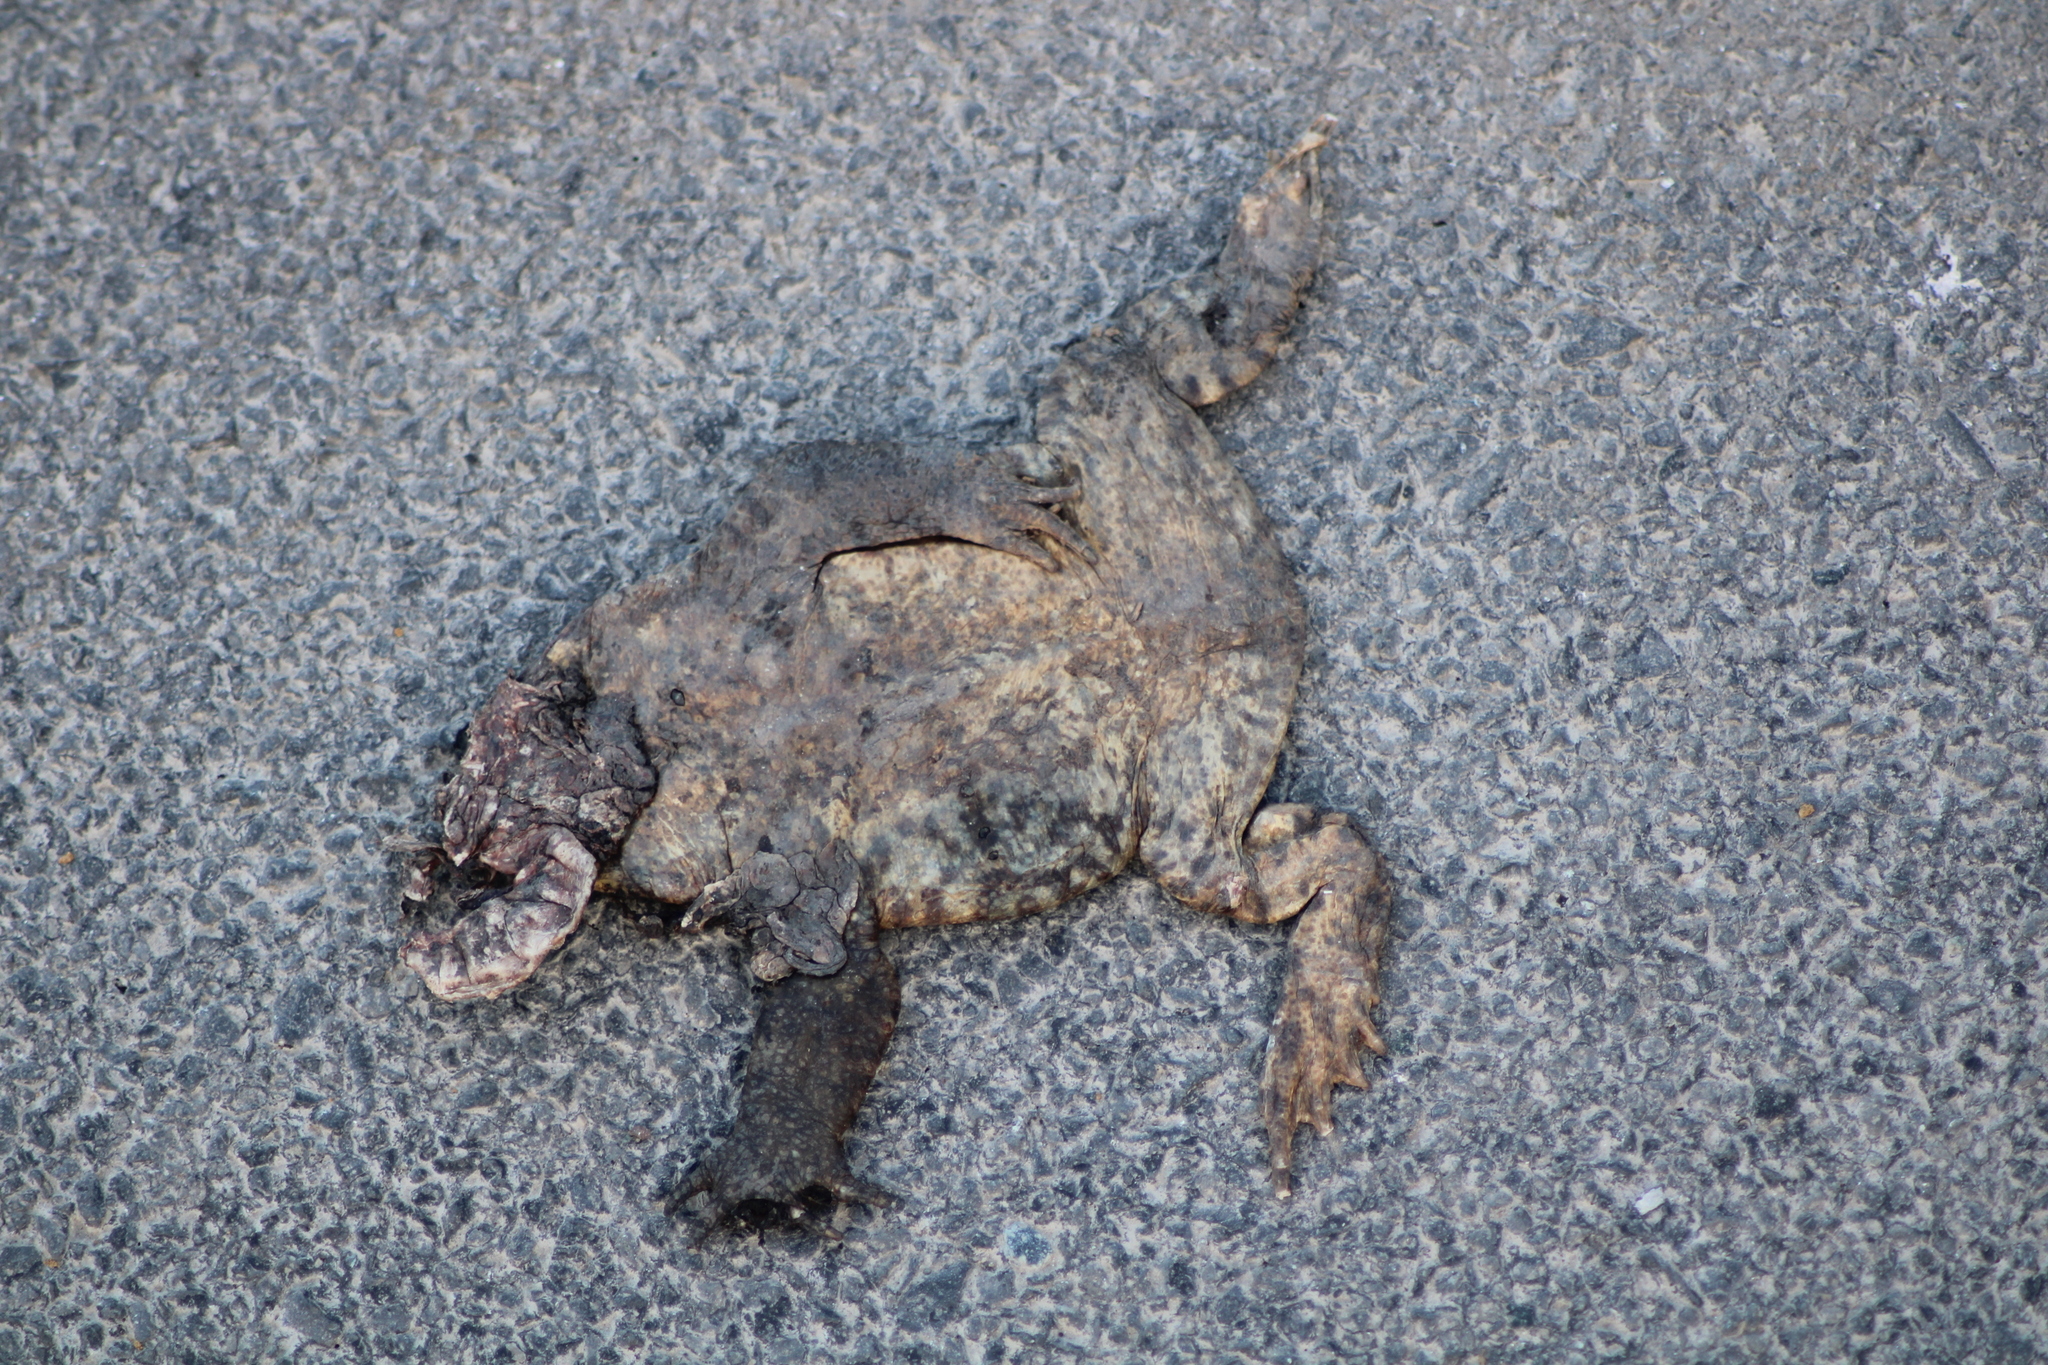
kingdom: Animalia
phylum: Chordata
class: Amphibia
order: Anura
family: Bufonidae
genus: Bufo
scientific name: Bufo bufo
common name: Common toad
